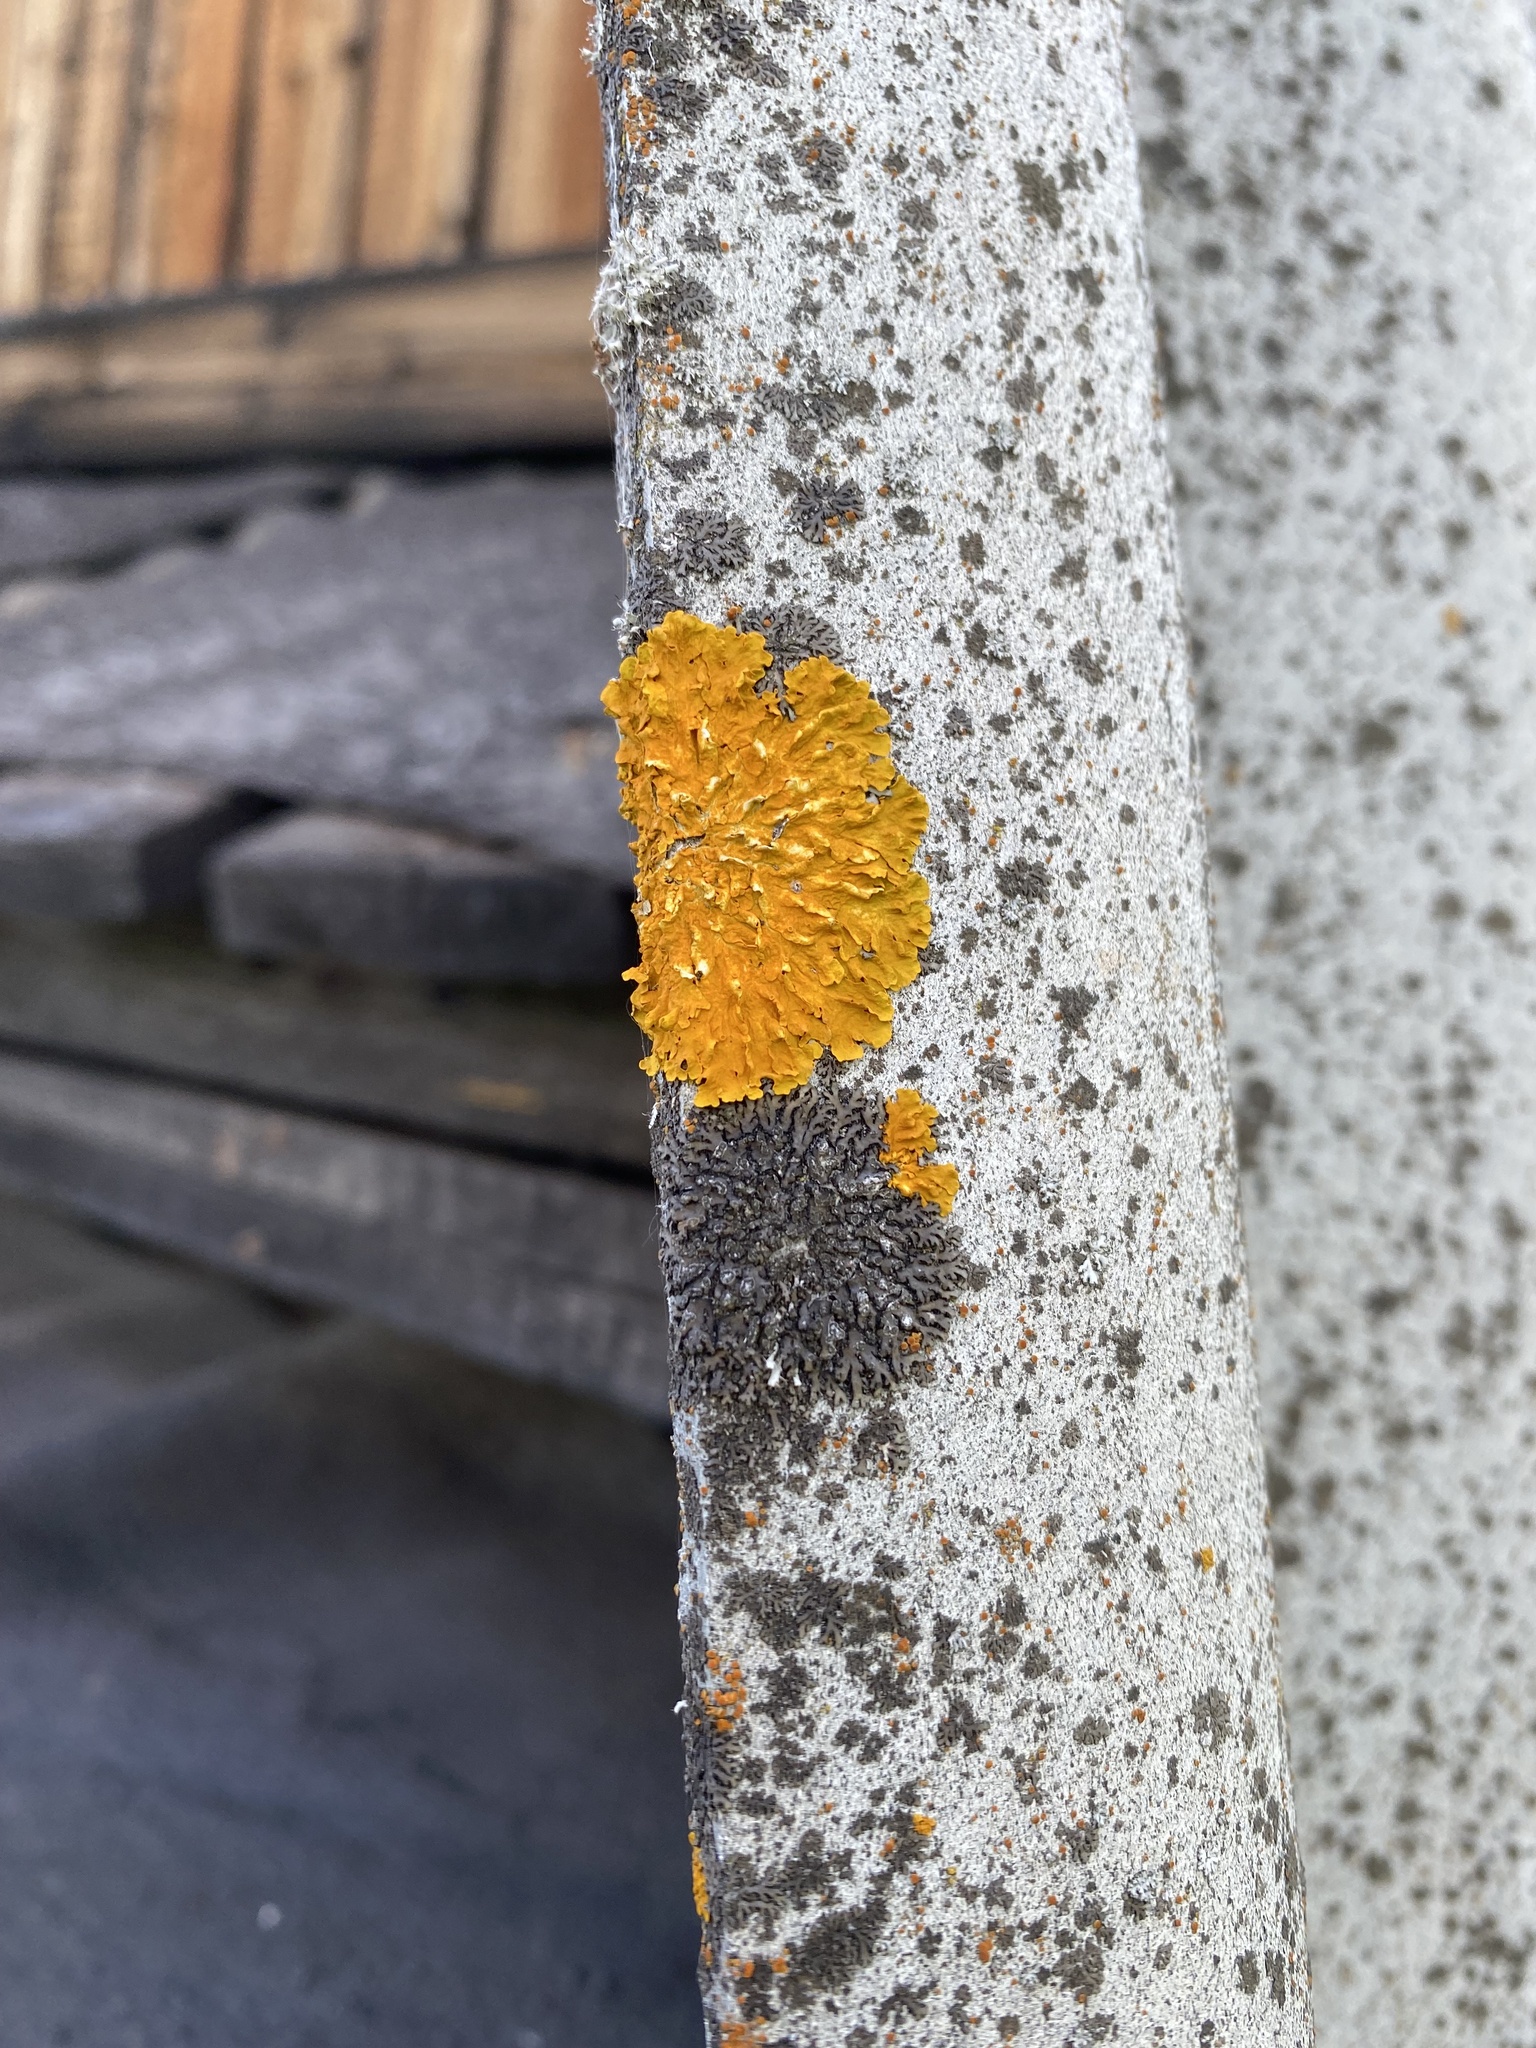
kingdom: Fungi
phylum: Ascomycota
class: Lecanoromycetes
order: Teloschistales
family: Teloschistaceae
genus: Xanthoria
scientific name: Xanthoria parietina
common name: Common orange lichen
